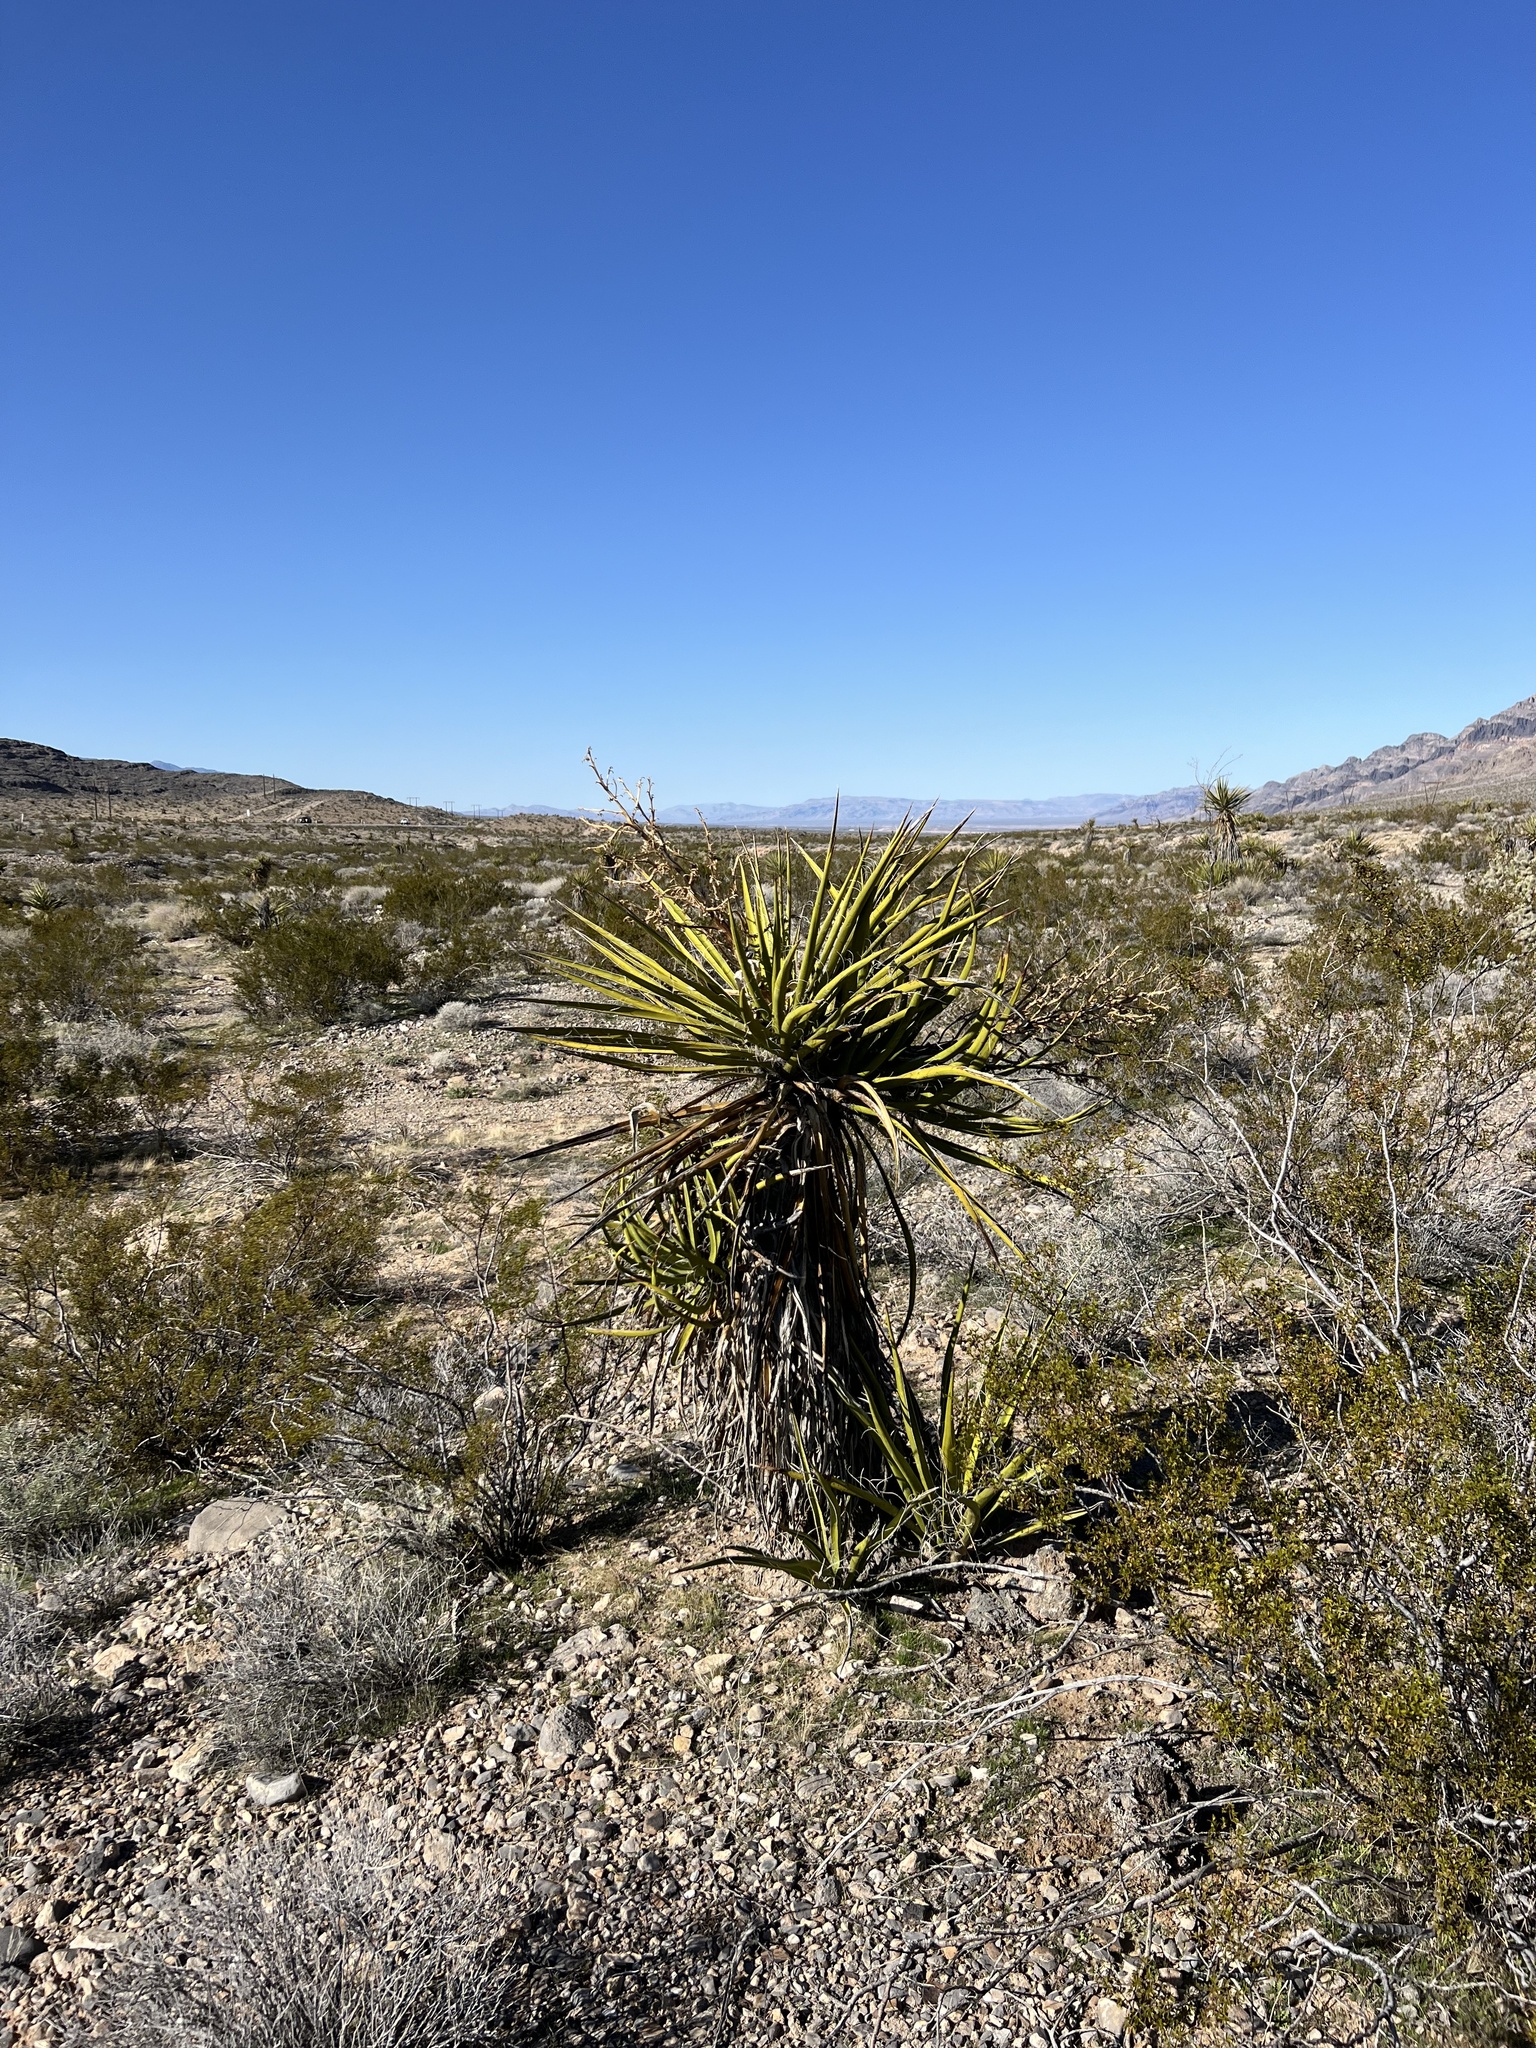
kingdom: Plantae
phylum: Tracheophyta
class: Liliopsida
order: Asparagales
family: Asparagaceae
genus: Yucca
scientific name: Yucca schidigera
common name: Mojave yucca
